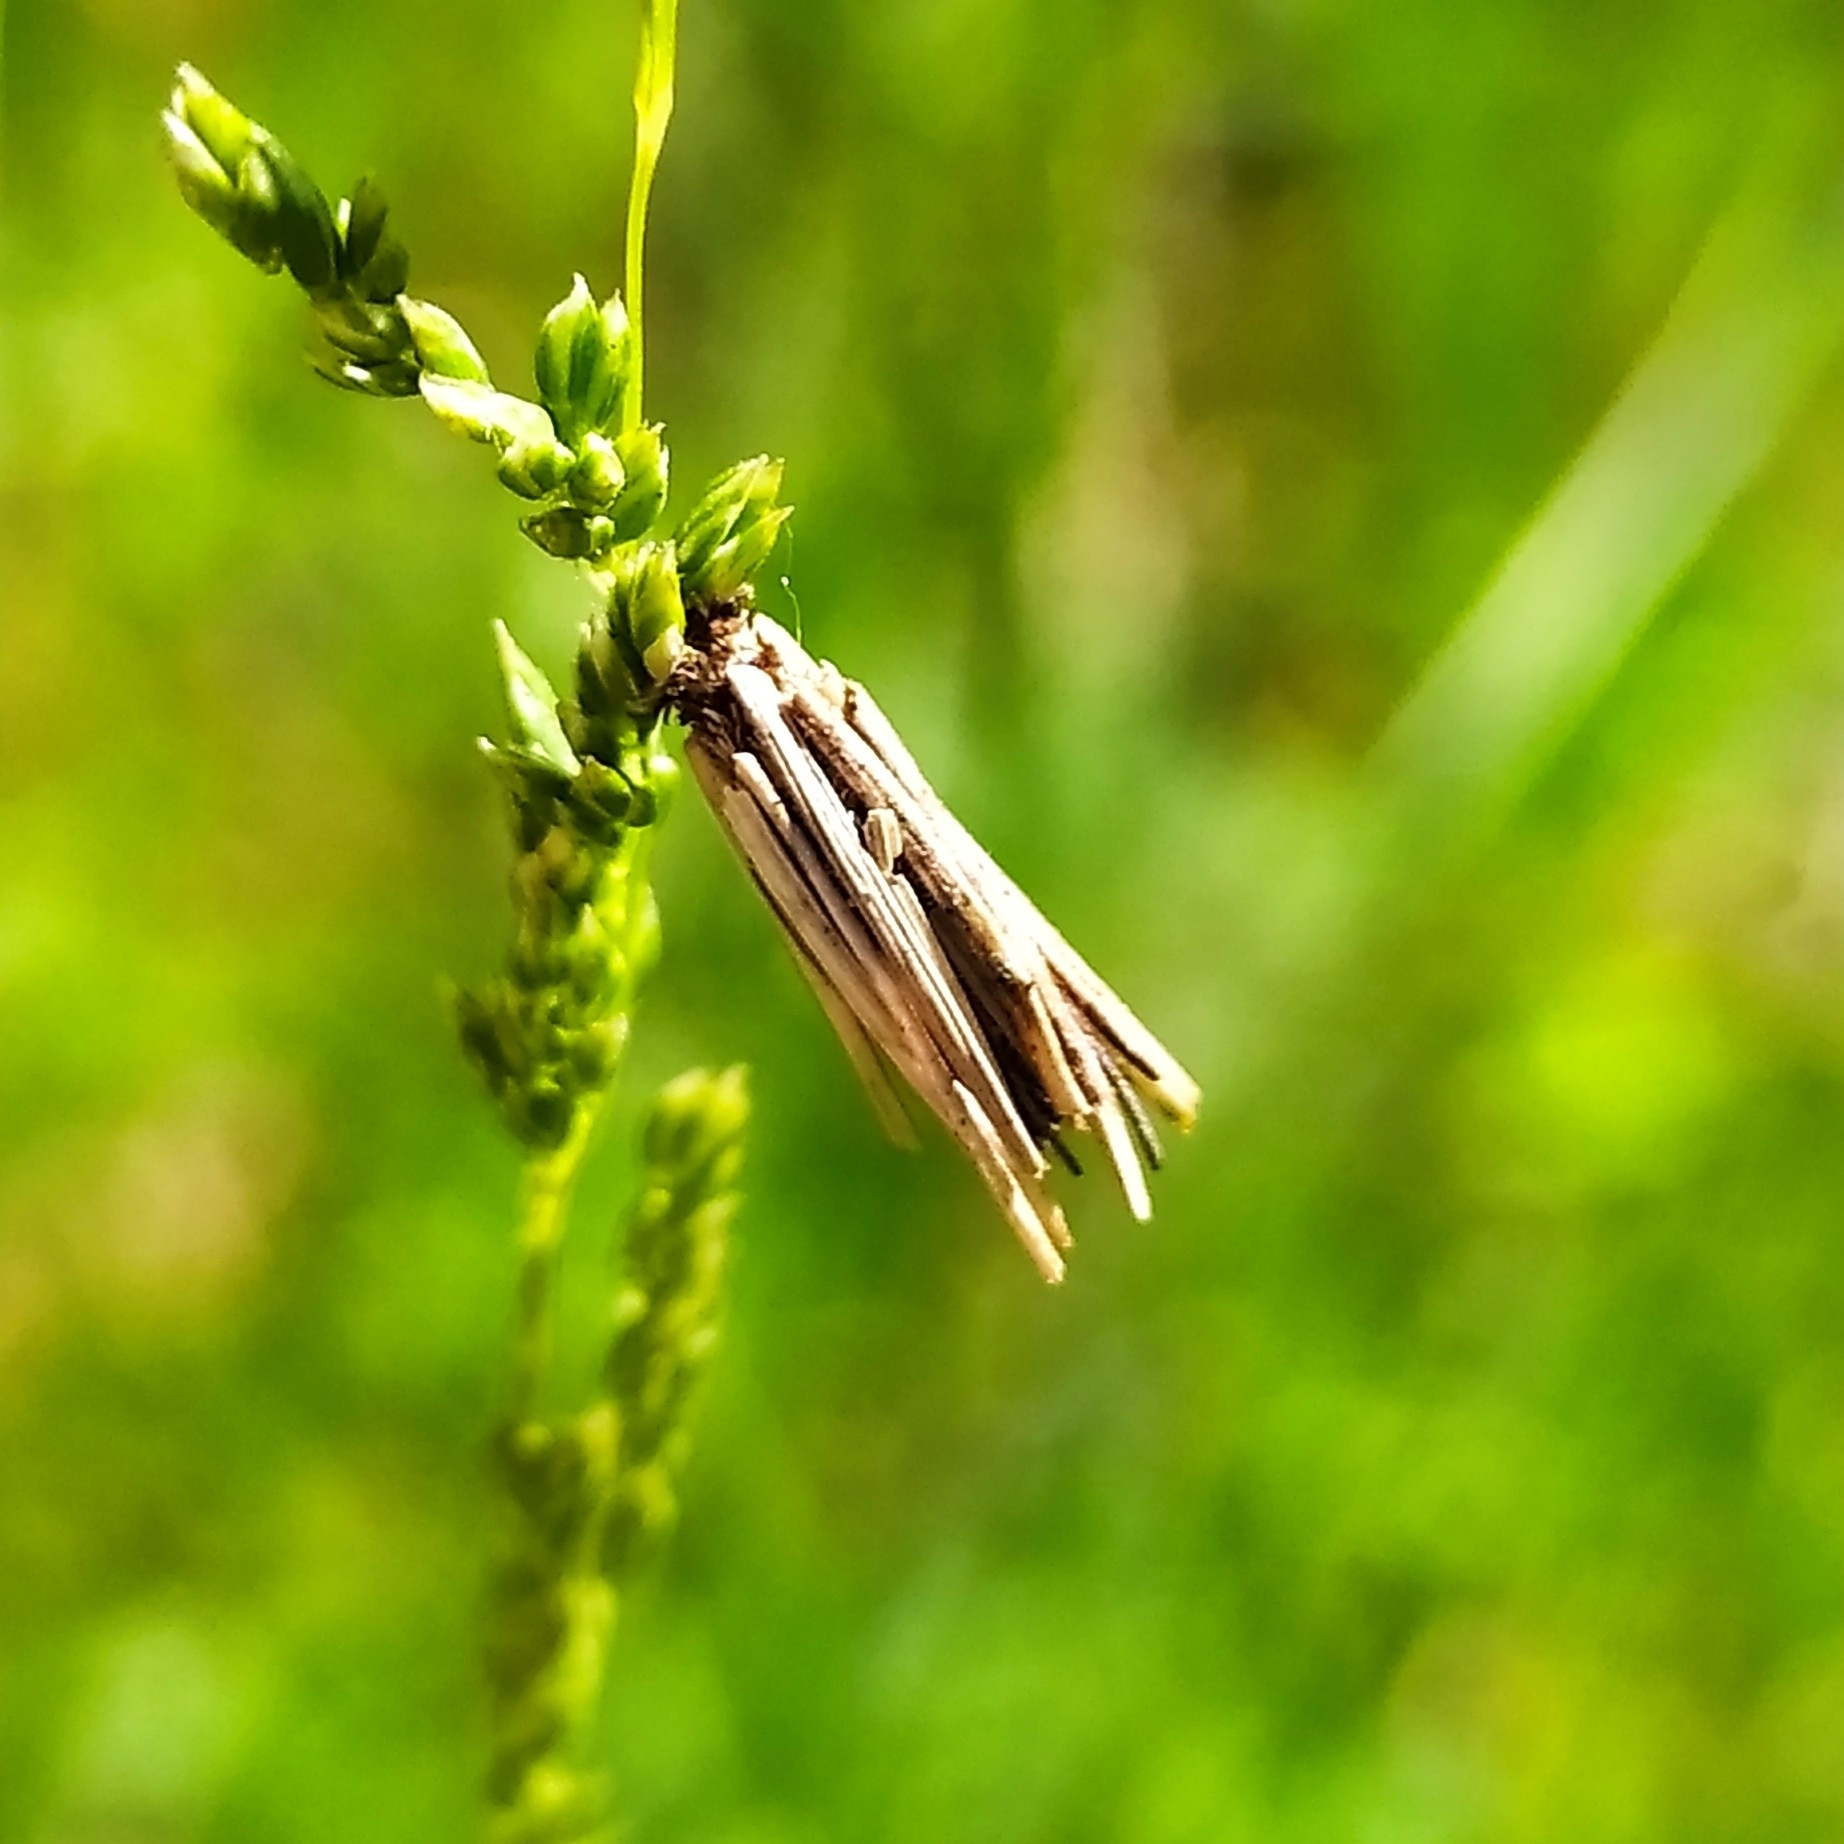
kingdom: Animalia
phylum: Arthropoda
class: Insecta
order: Lepidoptera
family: Psychidae
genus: Psyche
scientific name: Psyche casta
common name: Common sweep
